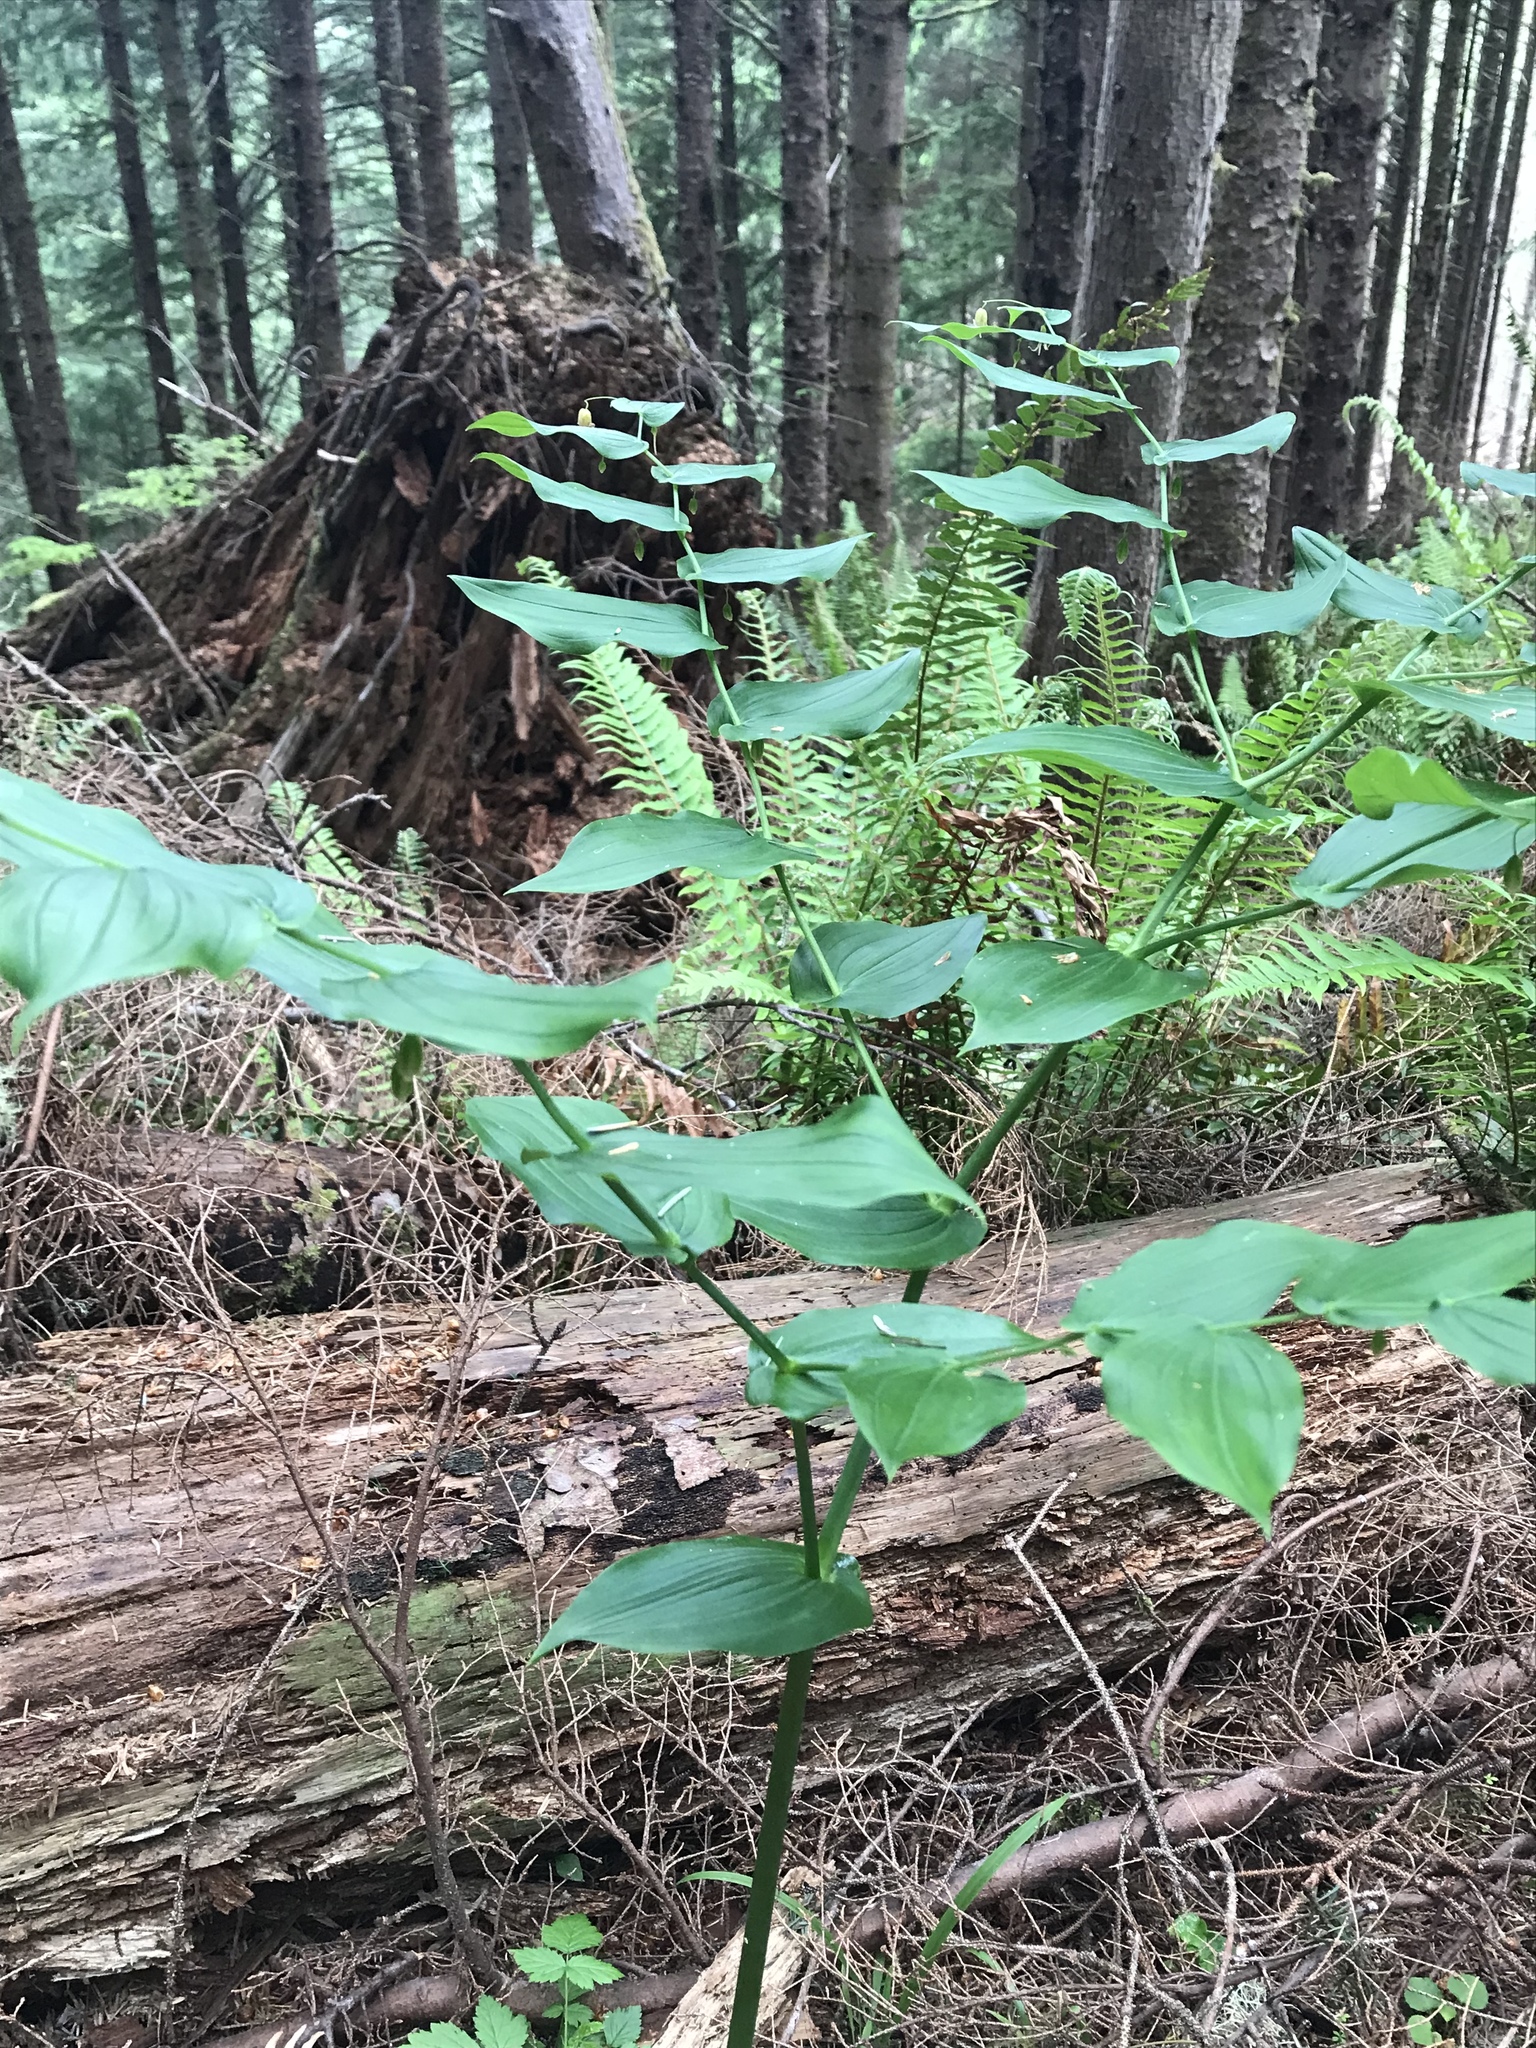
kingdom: Plantae
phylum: Tracheophyta
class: Liliopsida
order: Liliales
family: Liliaceae
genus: Streptopus
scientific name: Streptopus amplexifolius
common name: Clasp twisted stalk
